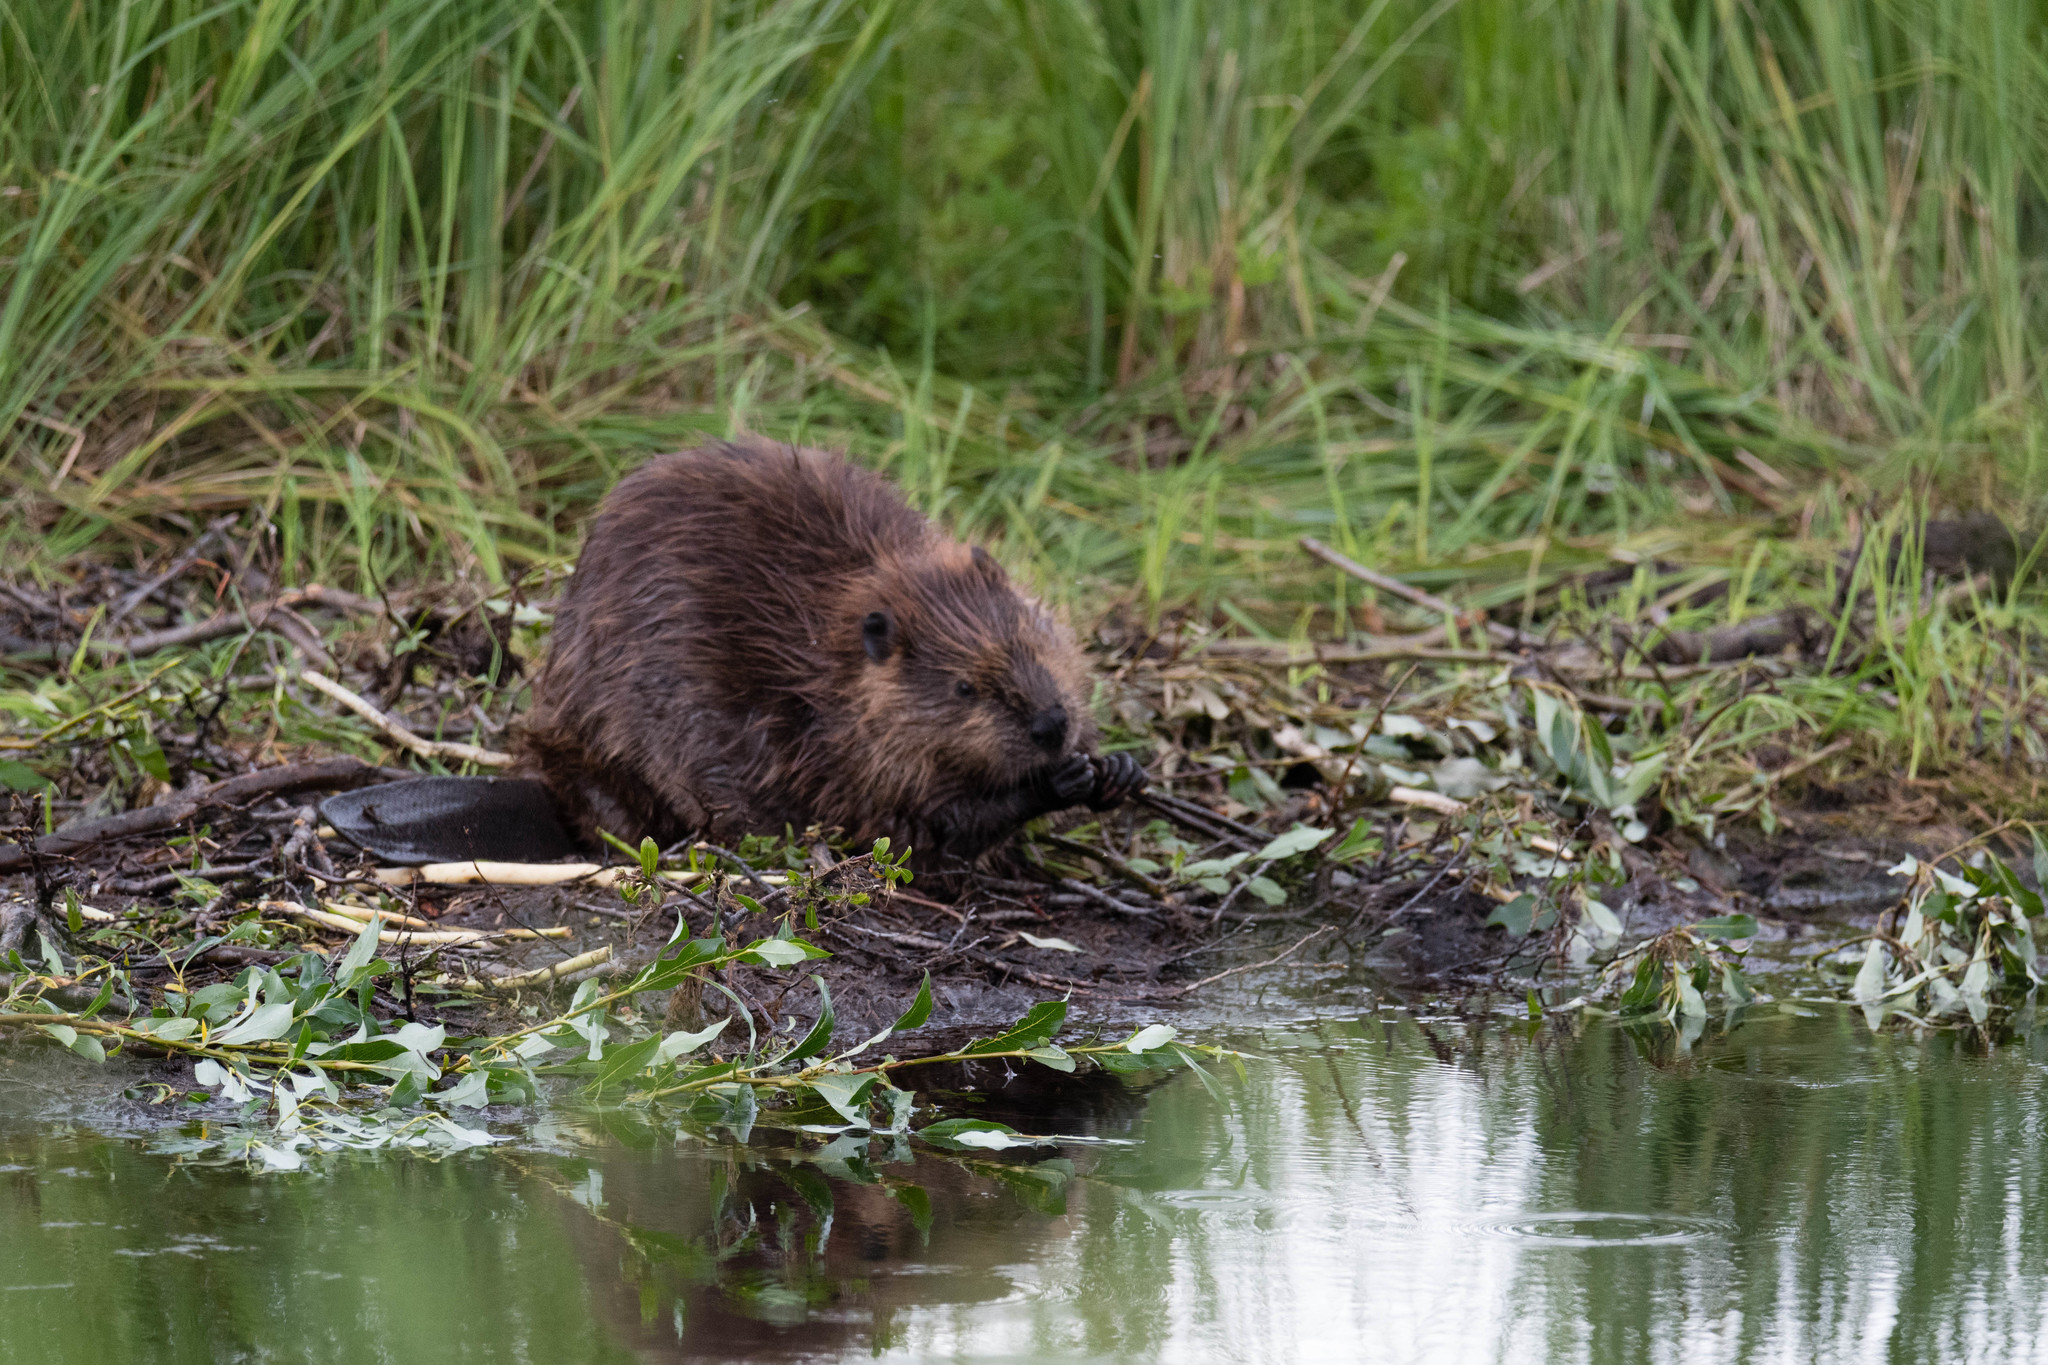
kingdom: Animalia
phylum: Chordata
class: Mammalia
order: Rodentia
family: Castoridae
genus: Castor
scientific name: Castor canadensis
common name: American beaver
